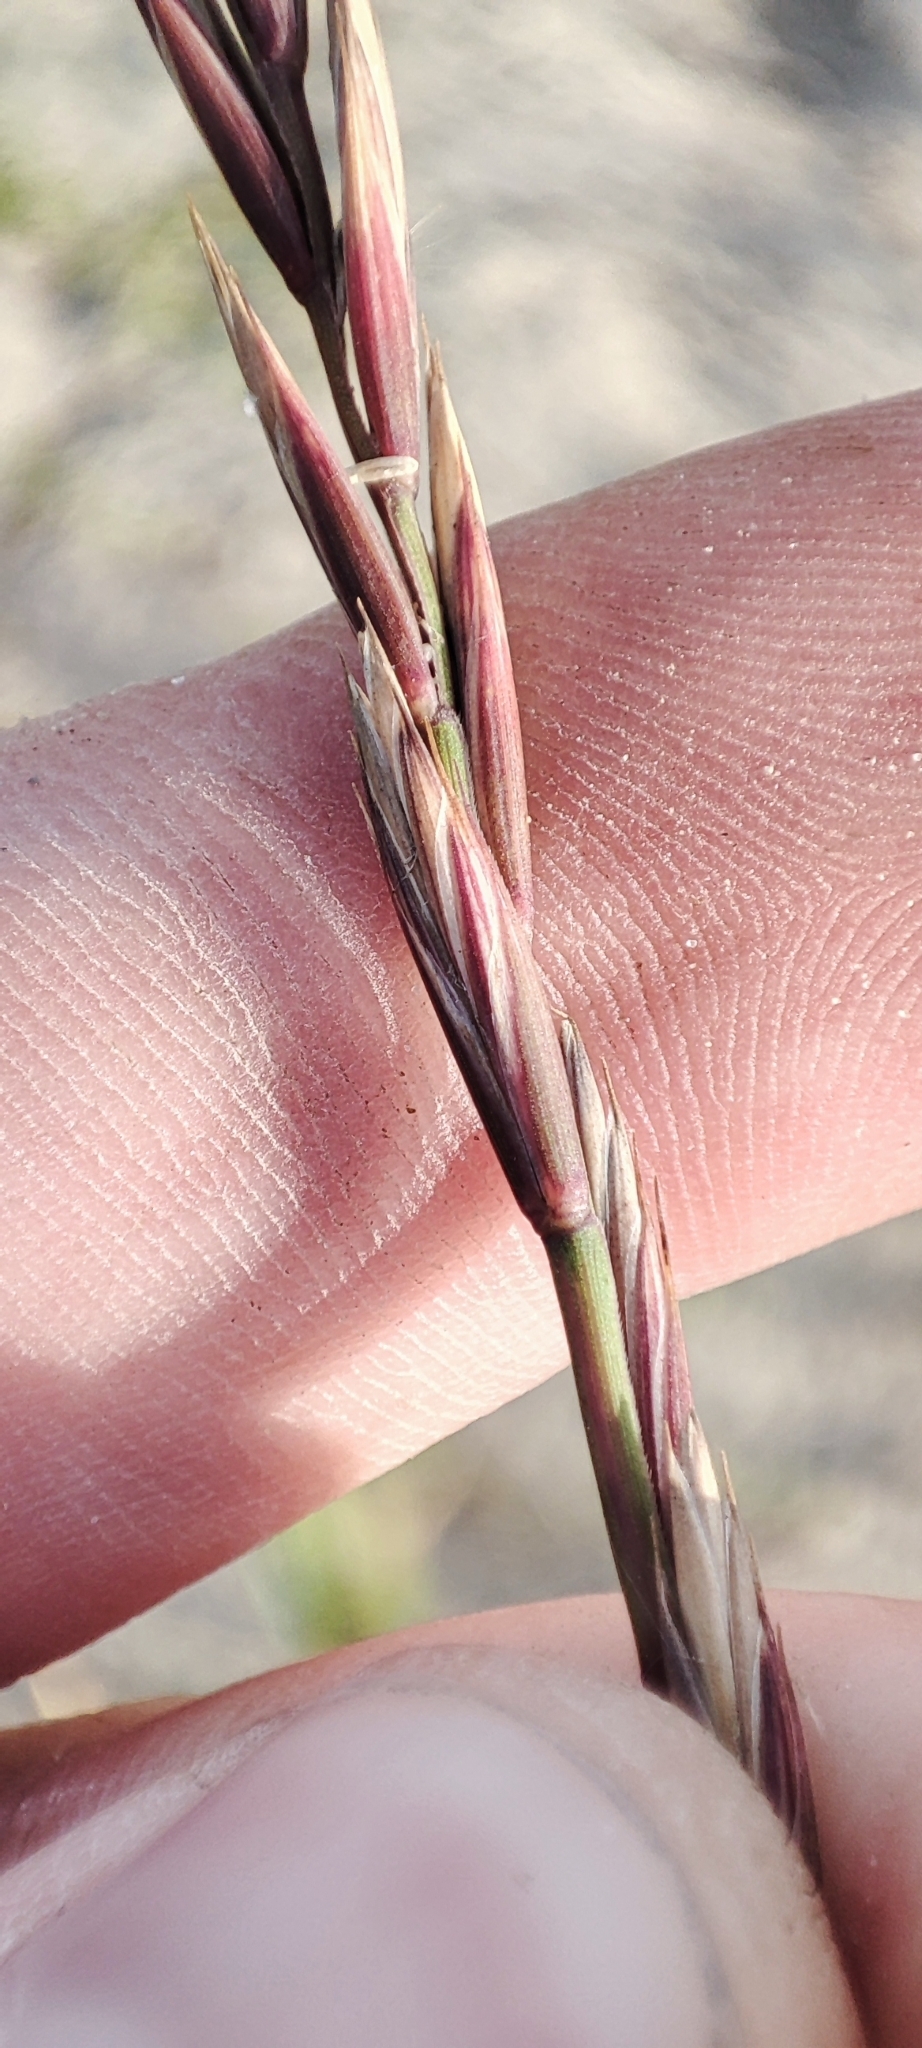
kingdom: Plantae
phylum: Tracheophyta
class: Liliopsida
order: Poales
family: Poaceae
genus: Elymus
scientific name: Elymus repens
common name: Quackgrass
